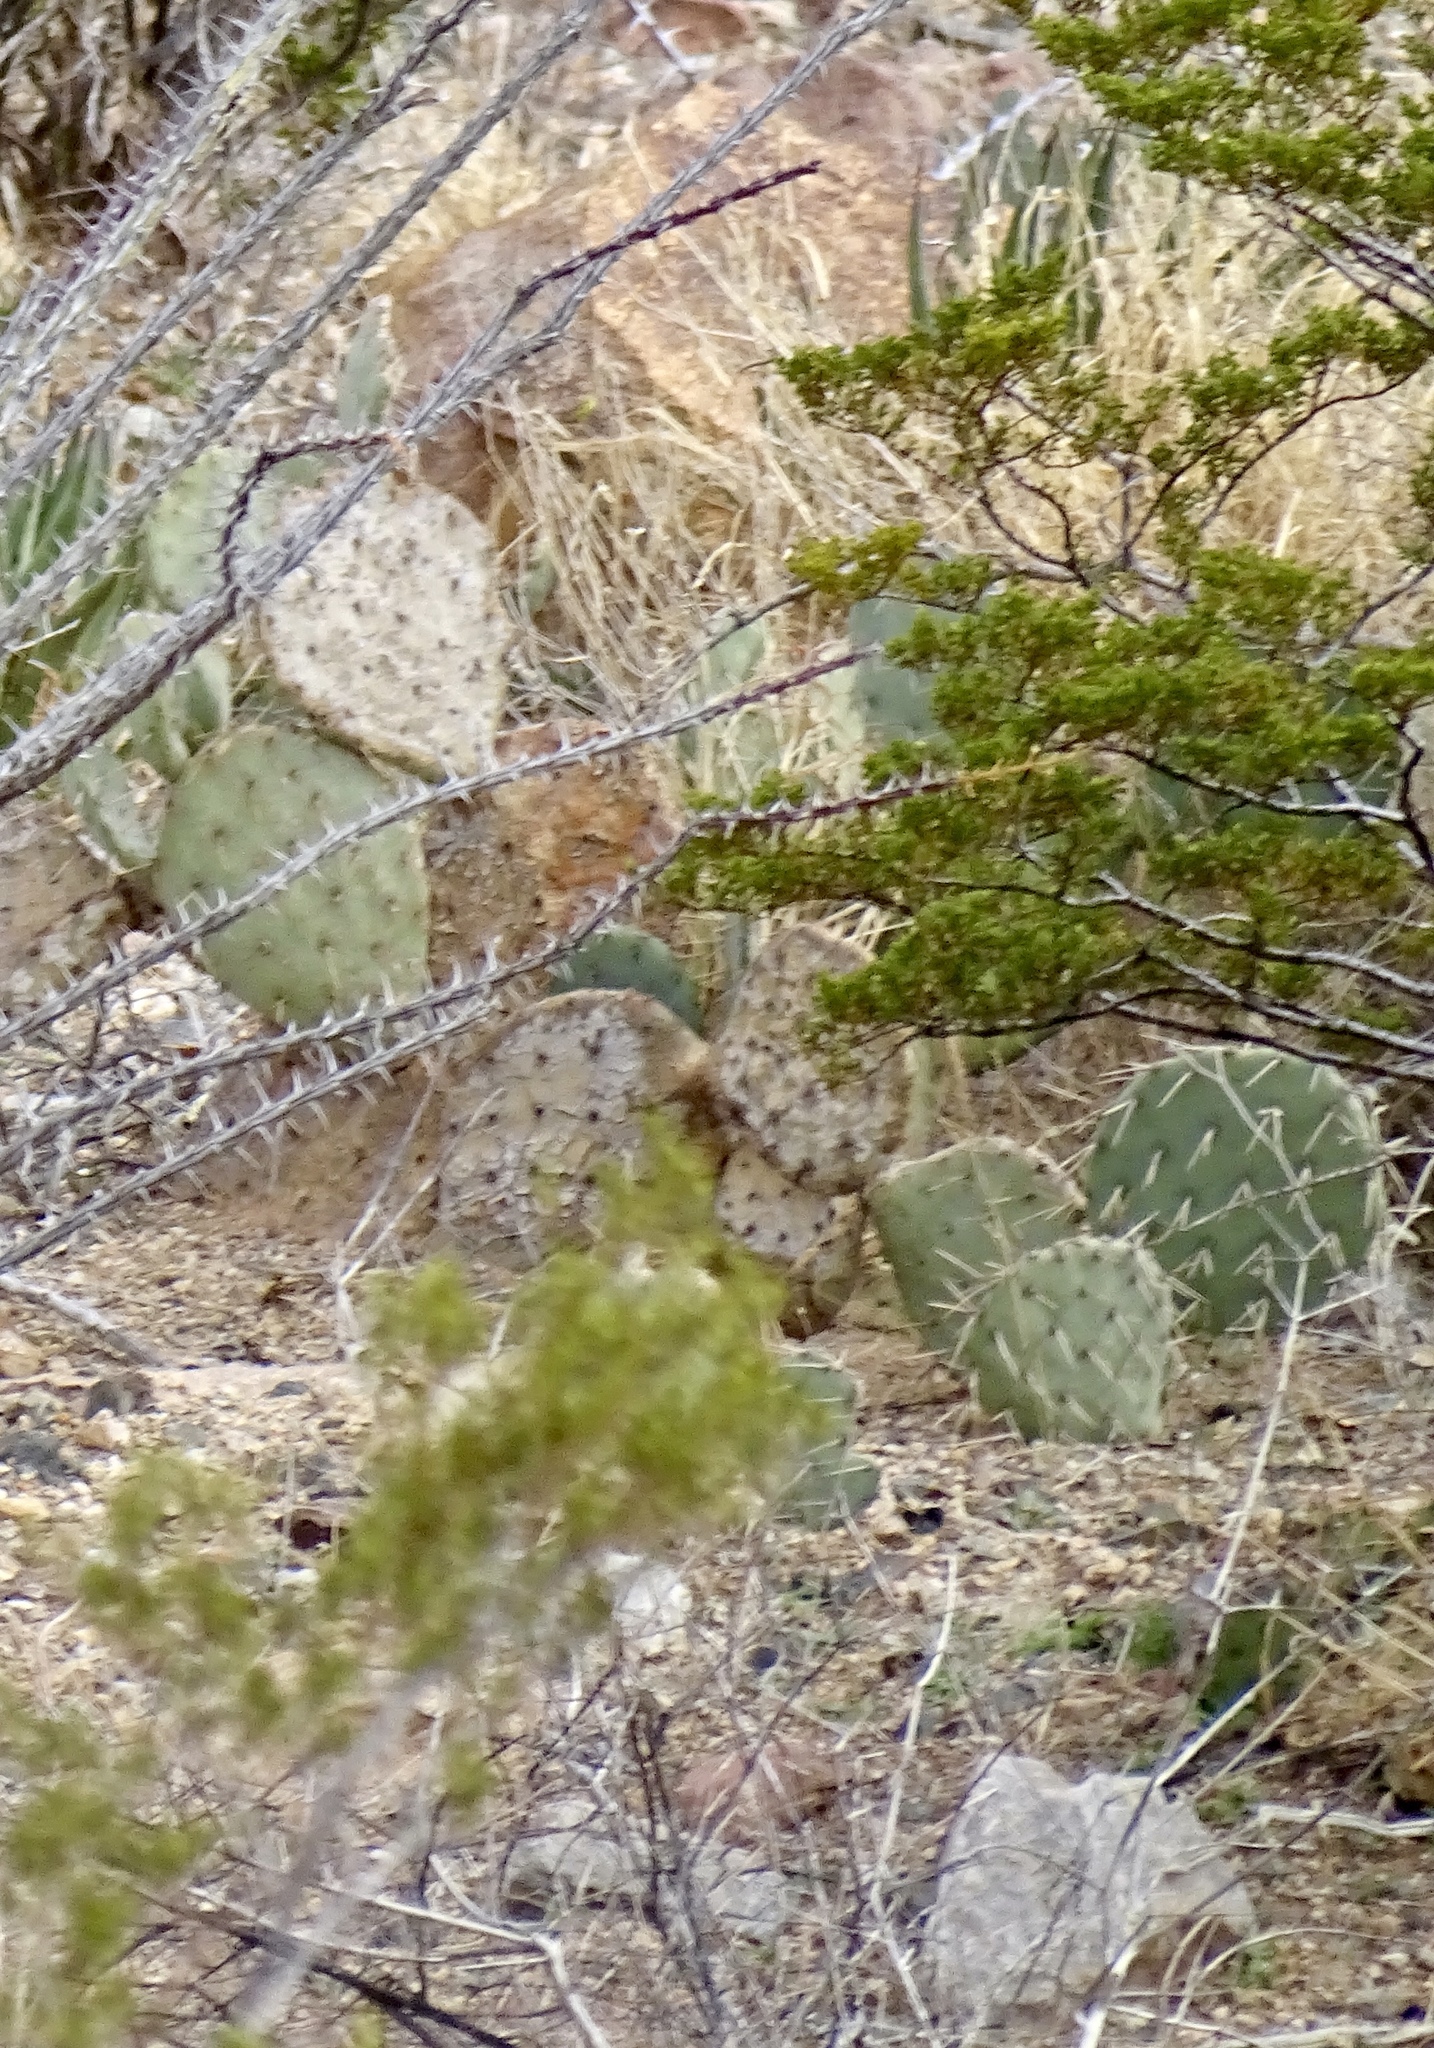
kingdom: Plantae
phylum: Tracheophyta
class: Magnoliopsida
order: Caryophyllales
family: Cactaceae
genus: Opuntia
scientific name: Opuntia engelmannii
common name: Cactus-apple
